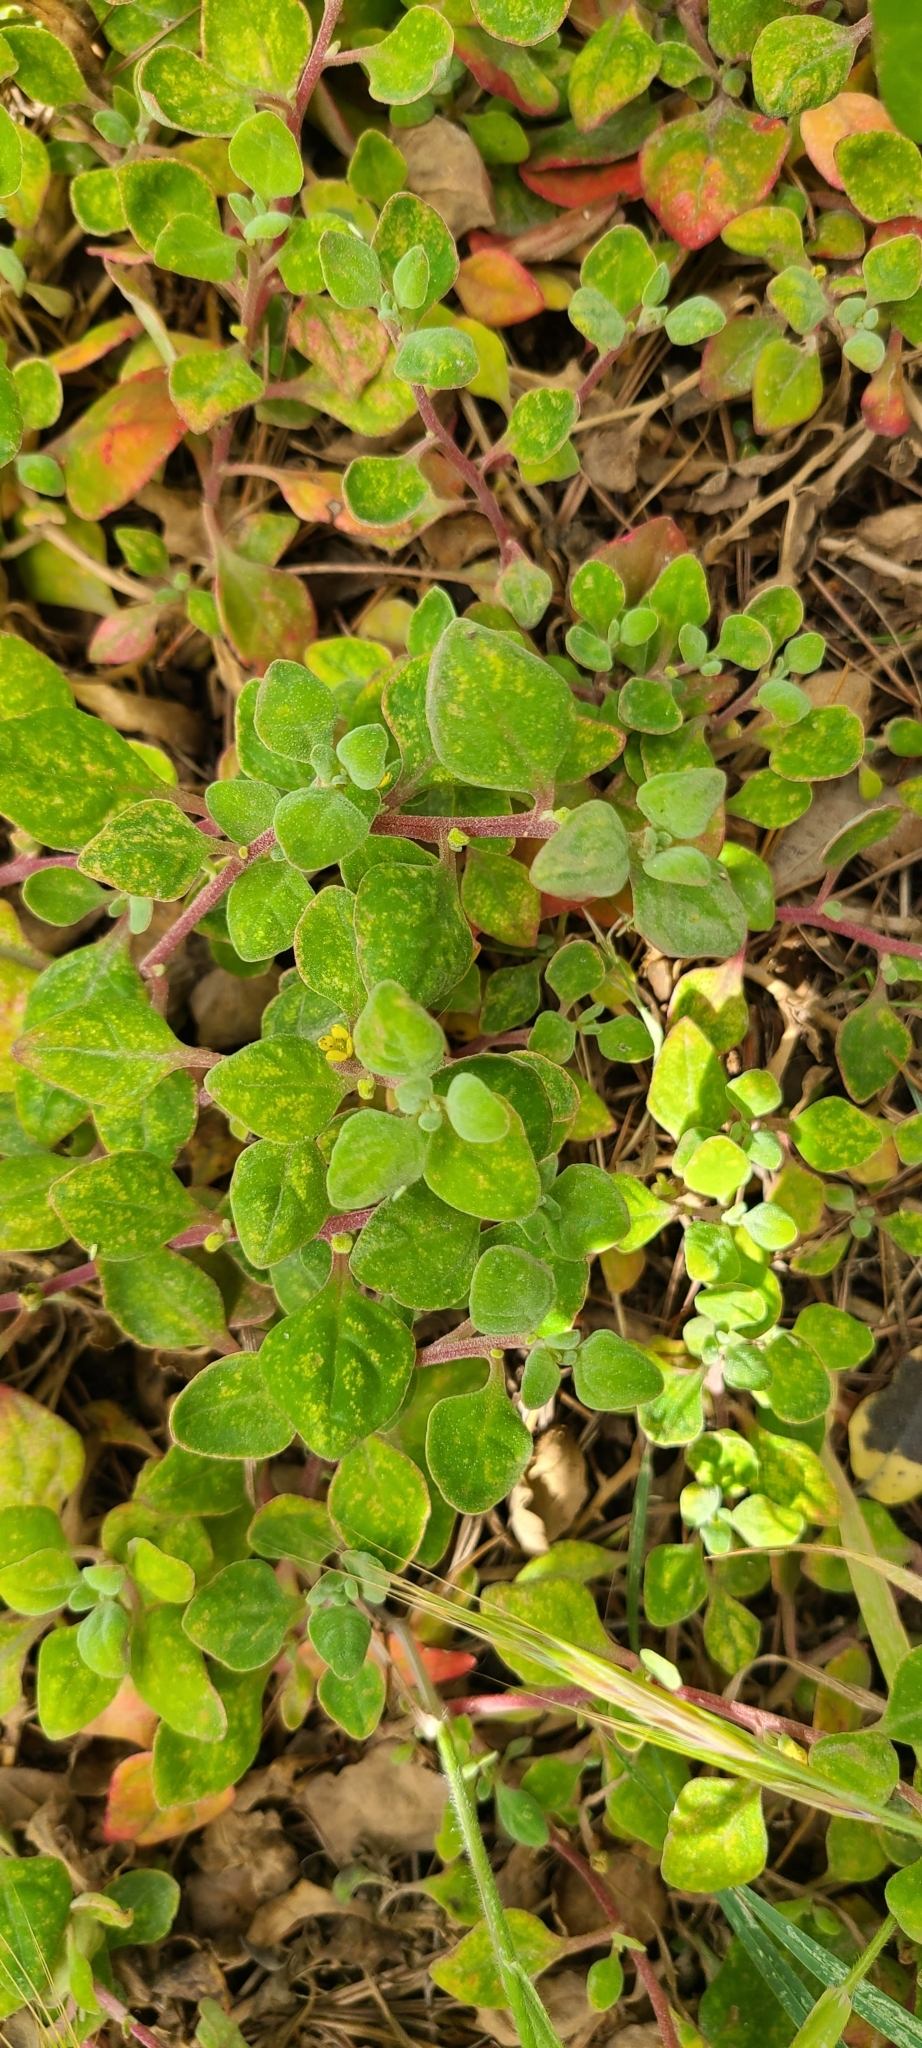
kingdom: Plantae
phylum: Tracheophyta
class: Magnoliopsida
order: Caryophyllales
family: Aizoaceae
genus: Tetragonia
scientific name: Tetragonia implexicoma
